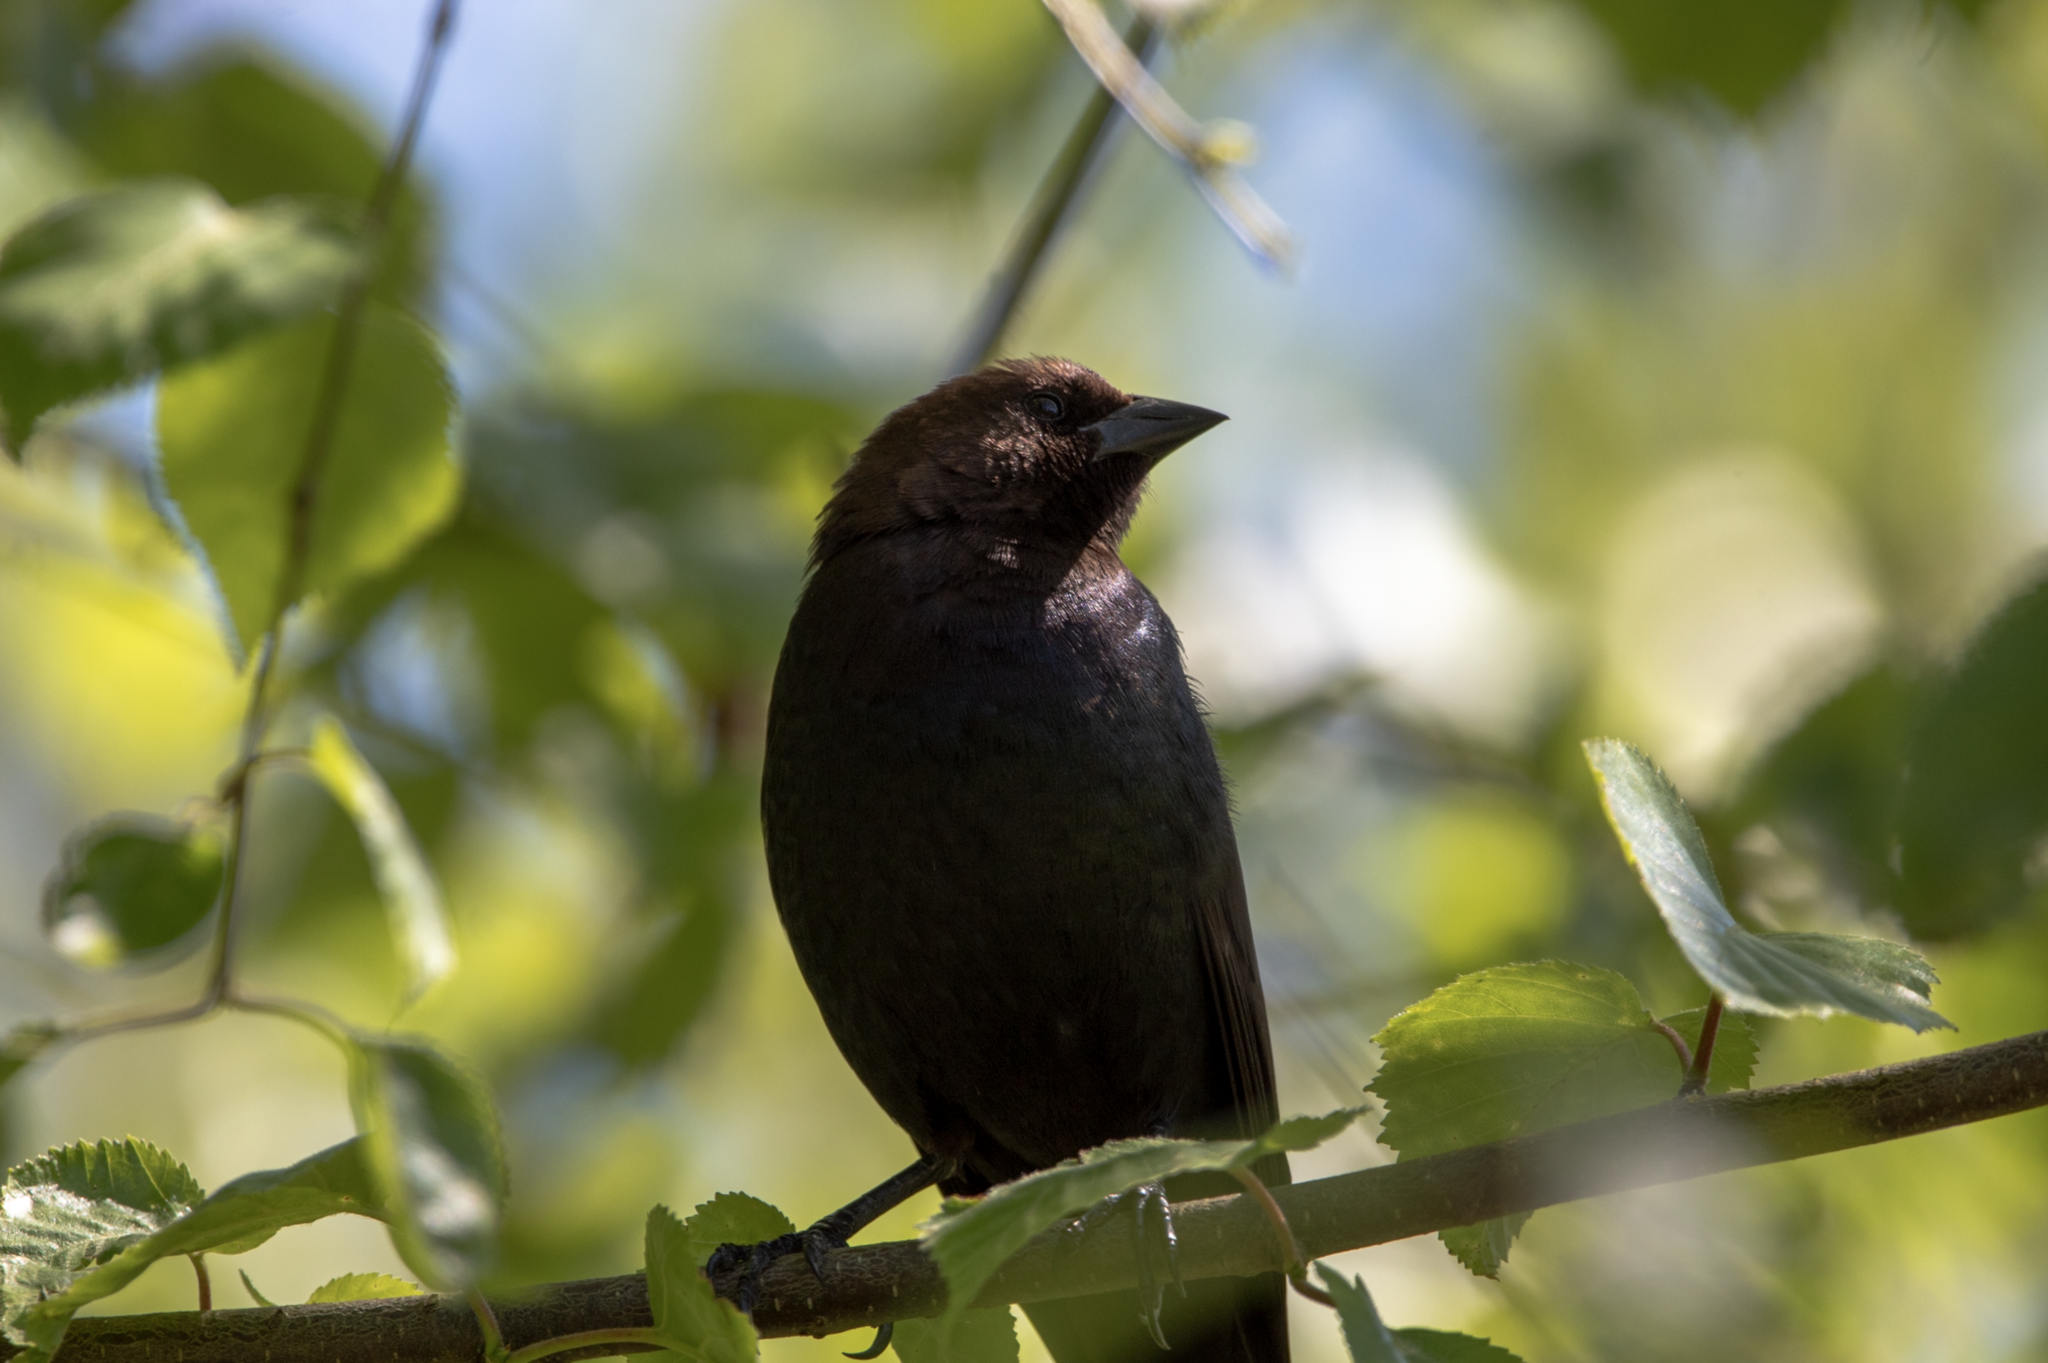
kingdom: Animalia
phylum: Chordata
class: Aves
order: Passeriformes
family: Icteridae
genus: Molothrus
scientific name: Molothrus ater
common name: Brown-headed cowbird
